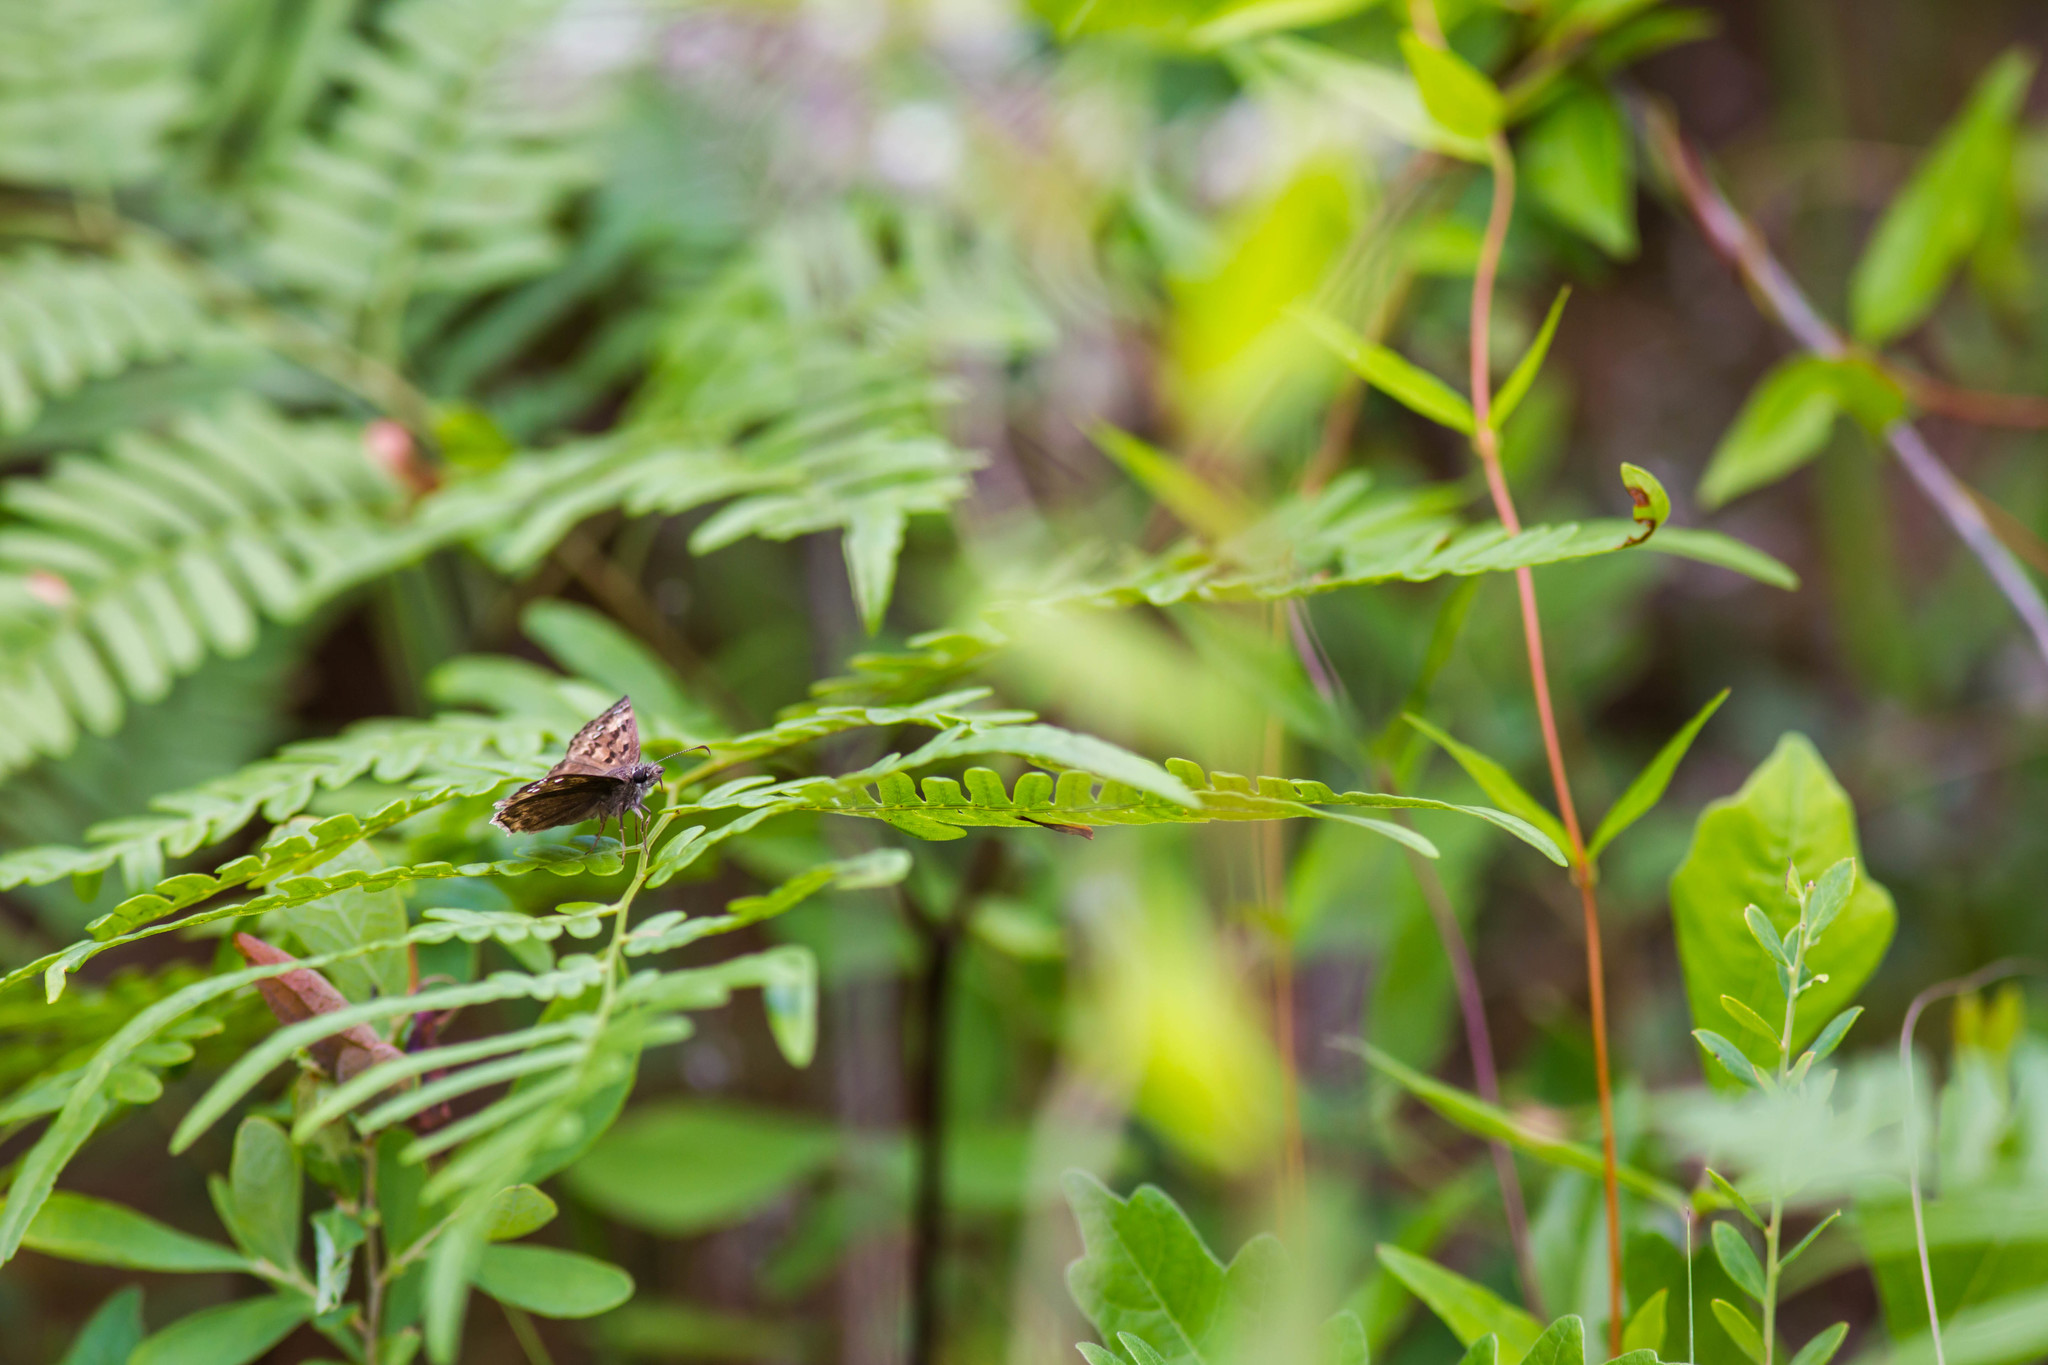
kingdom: Animalia
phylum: Arthropoda
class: Insecta
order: Lepidoptera
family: Hesperiidae
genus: Erynnis
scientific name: Erynnis horatius
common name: Horace's duskywing
